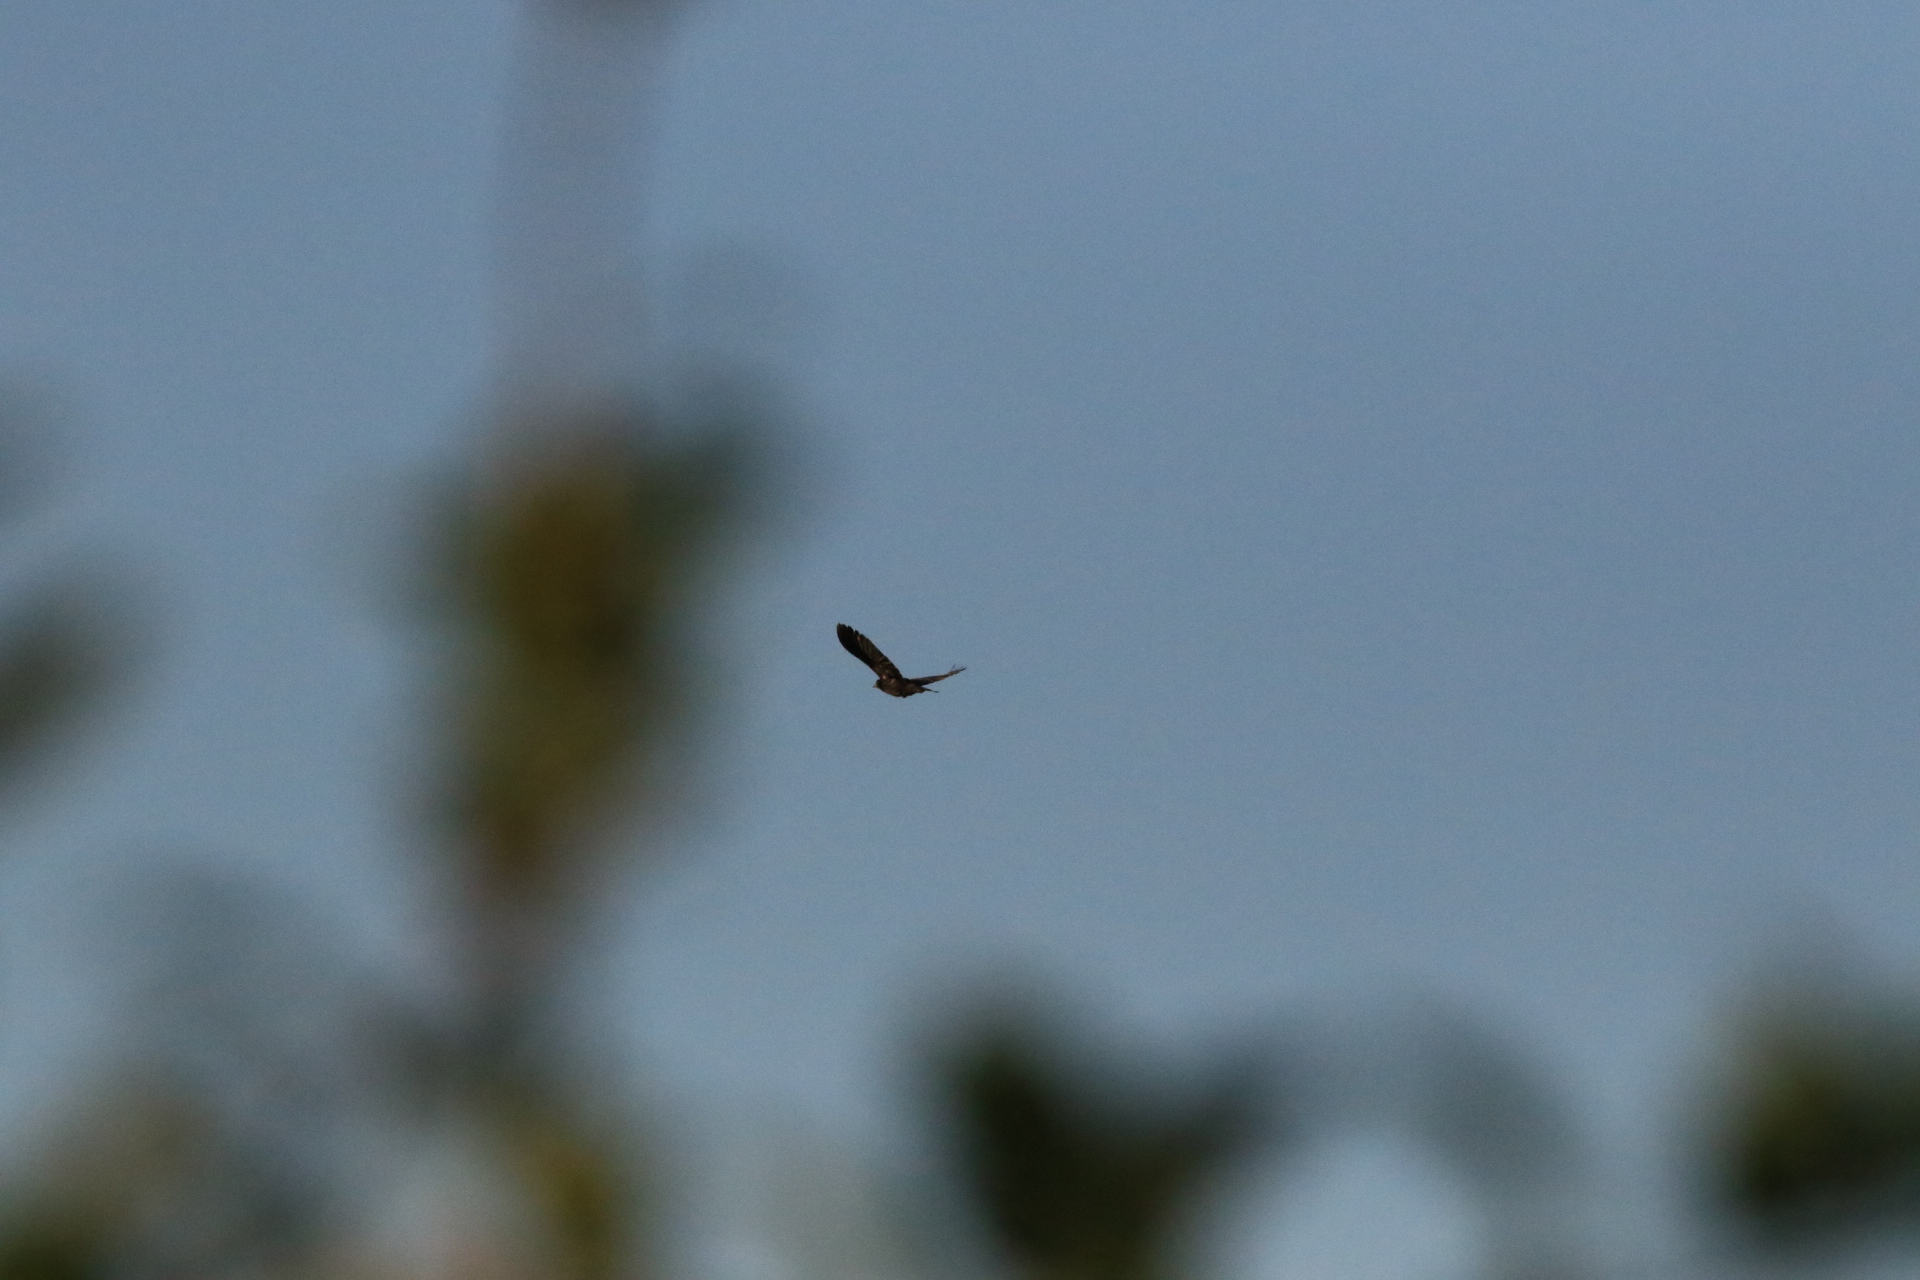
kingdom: Animalia
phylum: Chordata
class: Aves
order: Passeriformes
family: Icteridae
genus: Agelaius
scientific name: Agelaius phoeniceus
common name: Red-winged blackbird
